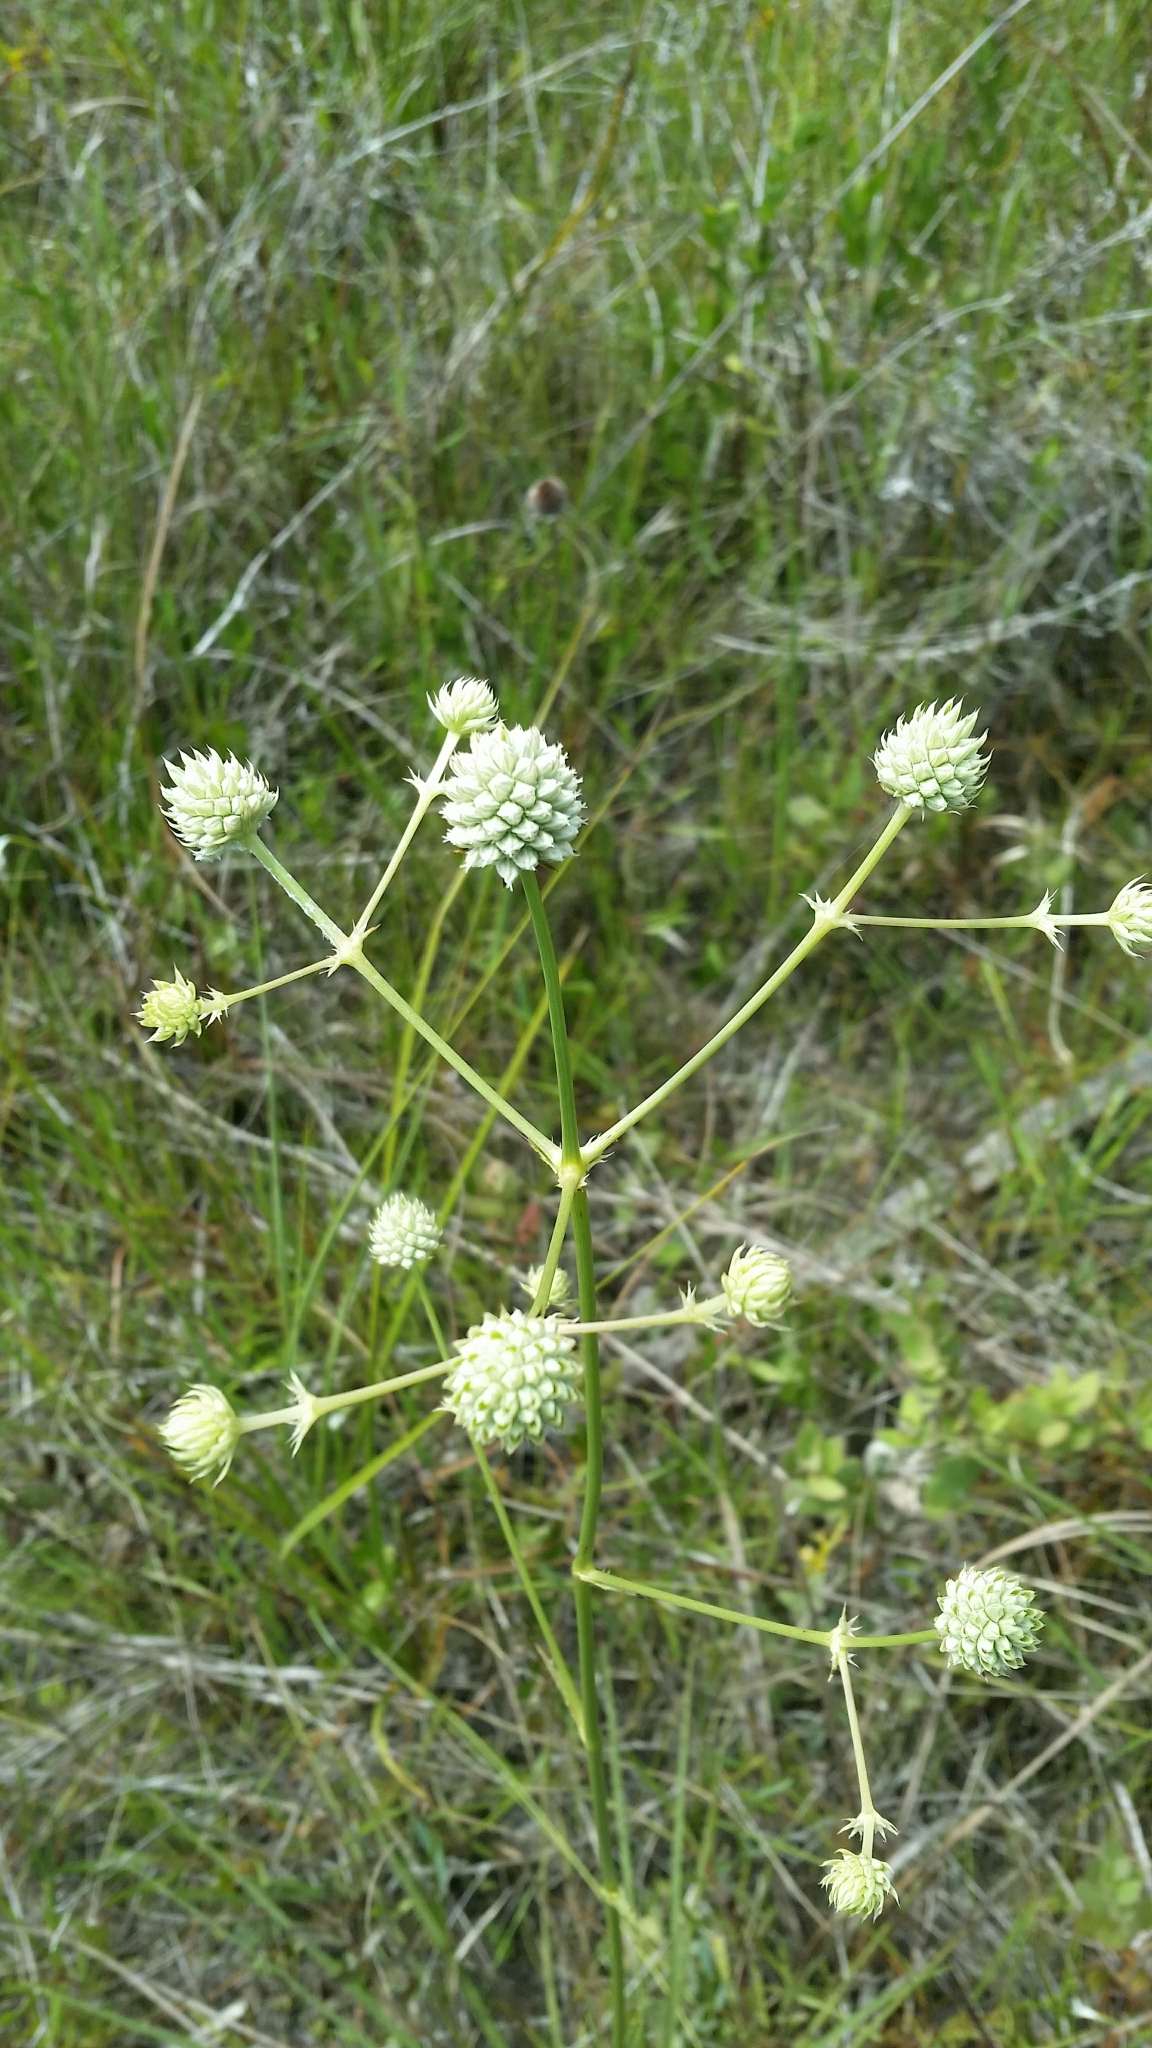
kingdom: Plantae
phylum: Tracheophyta
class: Magnoliopsida
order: Apiales
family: Apiaceae
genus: Eryngium
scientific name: Eryngium yuccifolium
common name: Button eryngo
